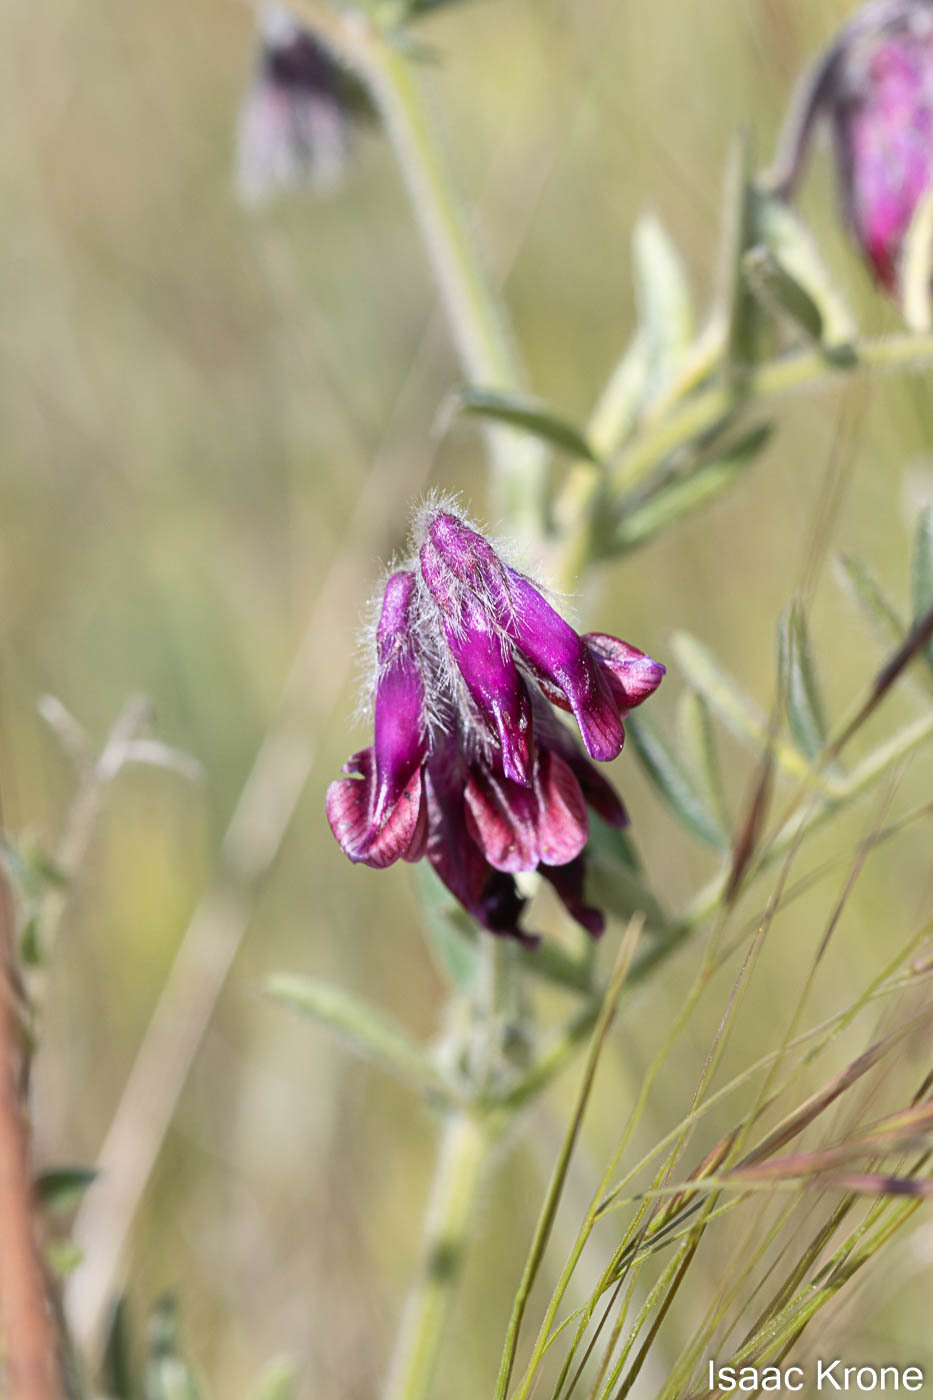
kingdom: Plantae
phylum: Tracheophyta
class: Magnoliopsida
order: Fabales
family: Fabaceae
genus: Vicia
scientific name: Vicia benghalensis
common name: Purple vetch
